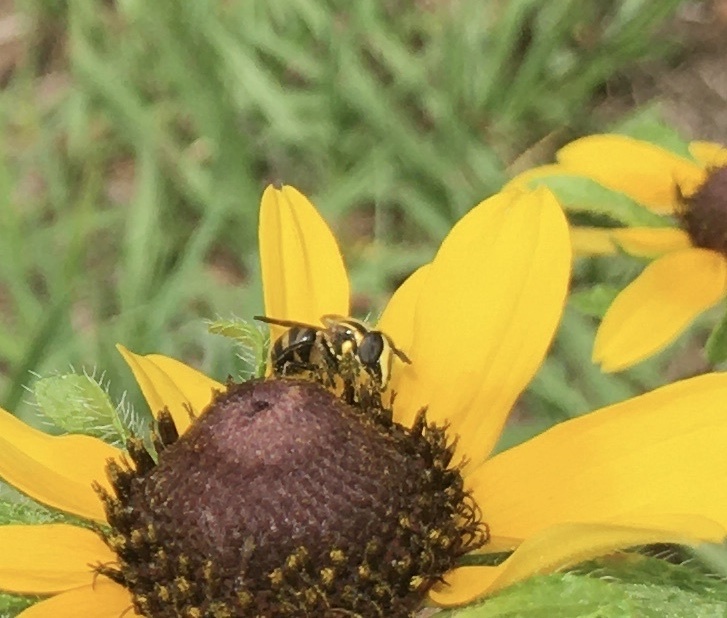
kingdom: Animalia
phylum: Arthropoda
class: Insecta
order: Diptera
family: Syrphidae
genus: Copestylum
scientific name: Copestylum vittatum
